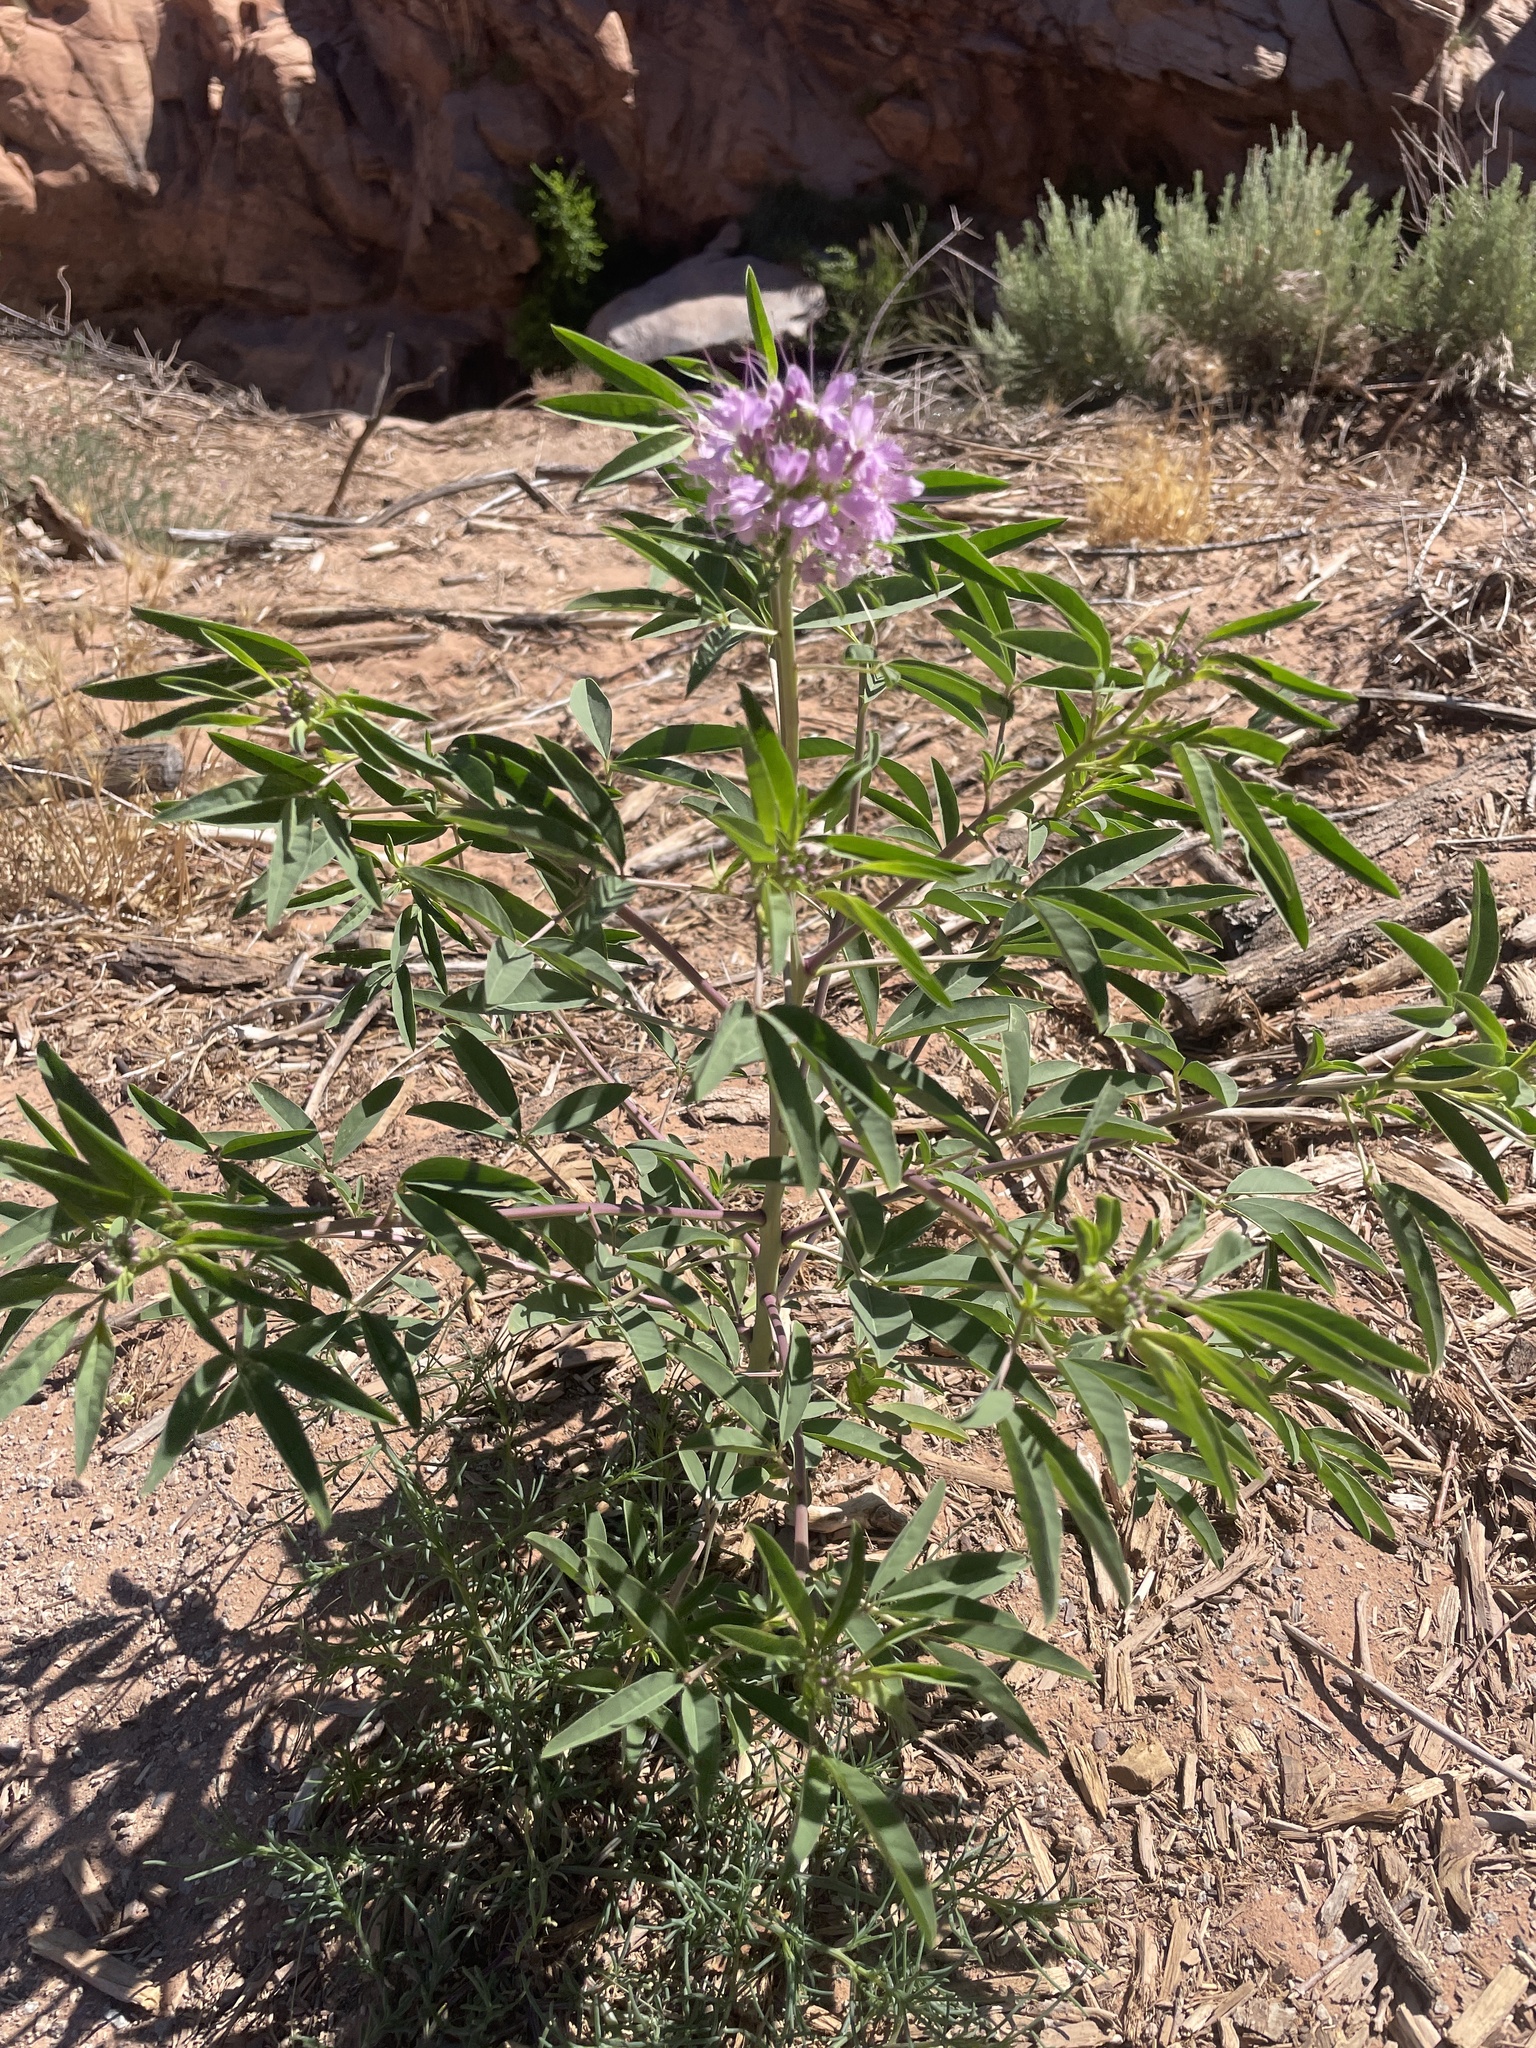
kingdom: Plantae
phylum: Tracheophyta
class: Magnoliopsida
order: Brassicales
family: Cleomaceae
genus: Cleomella
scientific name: Cleomella serrulata
